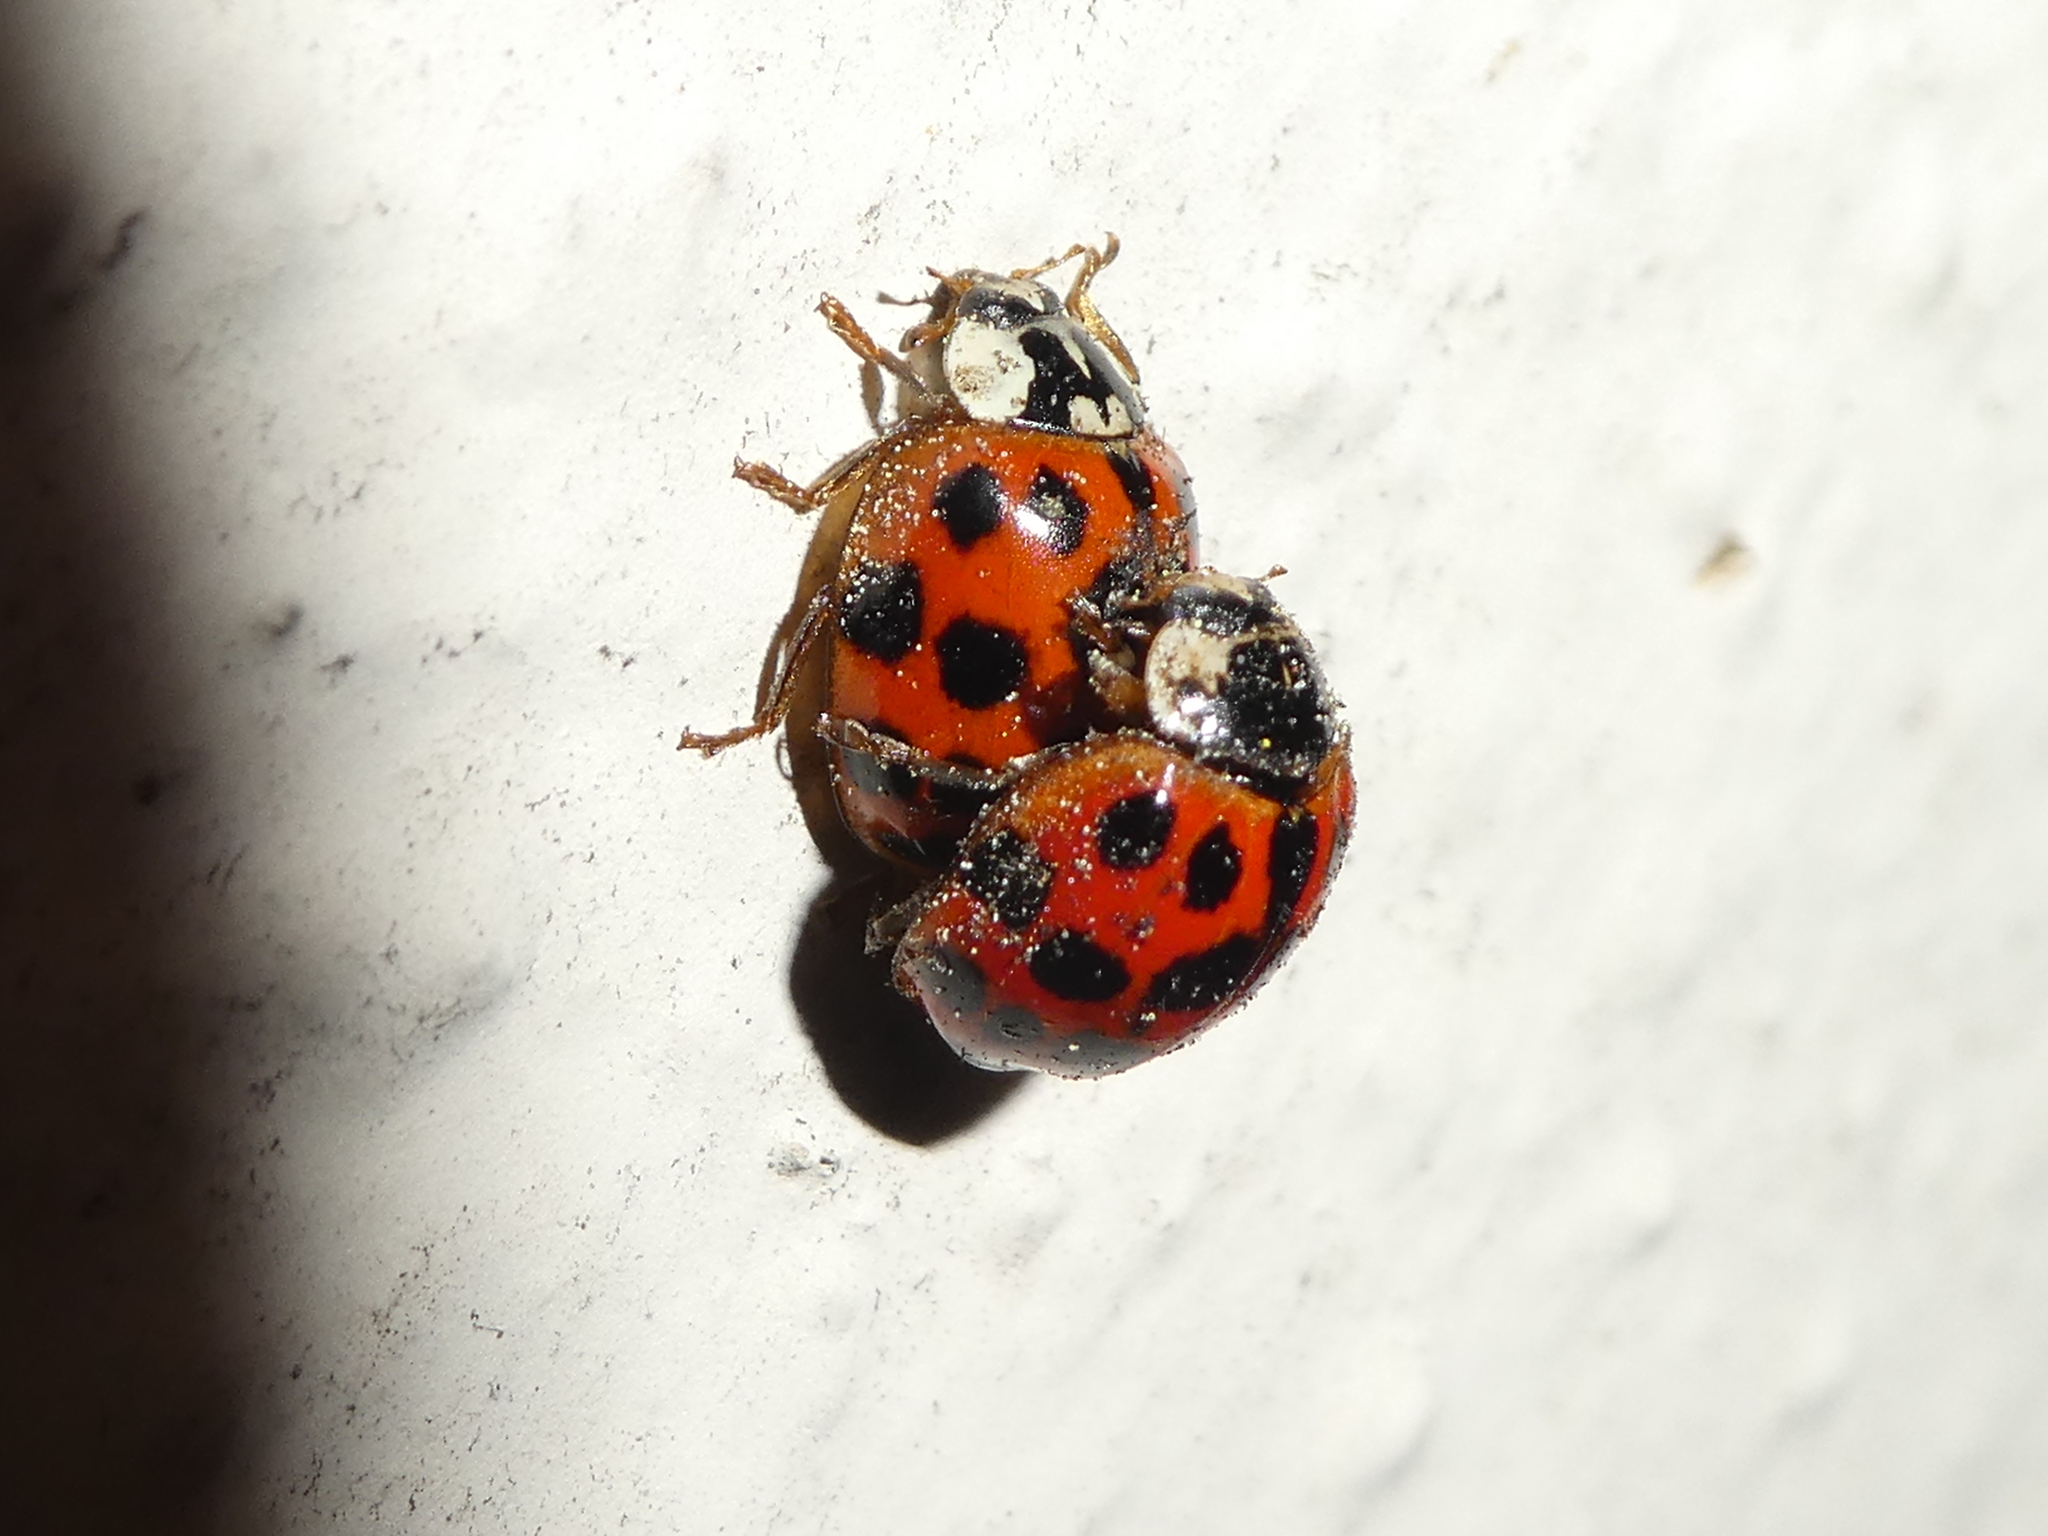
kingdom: Animalia
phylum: Arthropoda
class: Insecta
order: Coleoptera
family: Coccinellidae
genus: Harmonia
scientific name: Harmonia axyridis
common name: Harlequin ladybird
